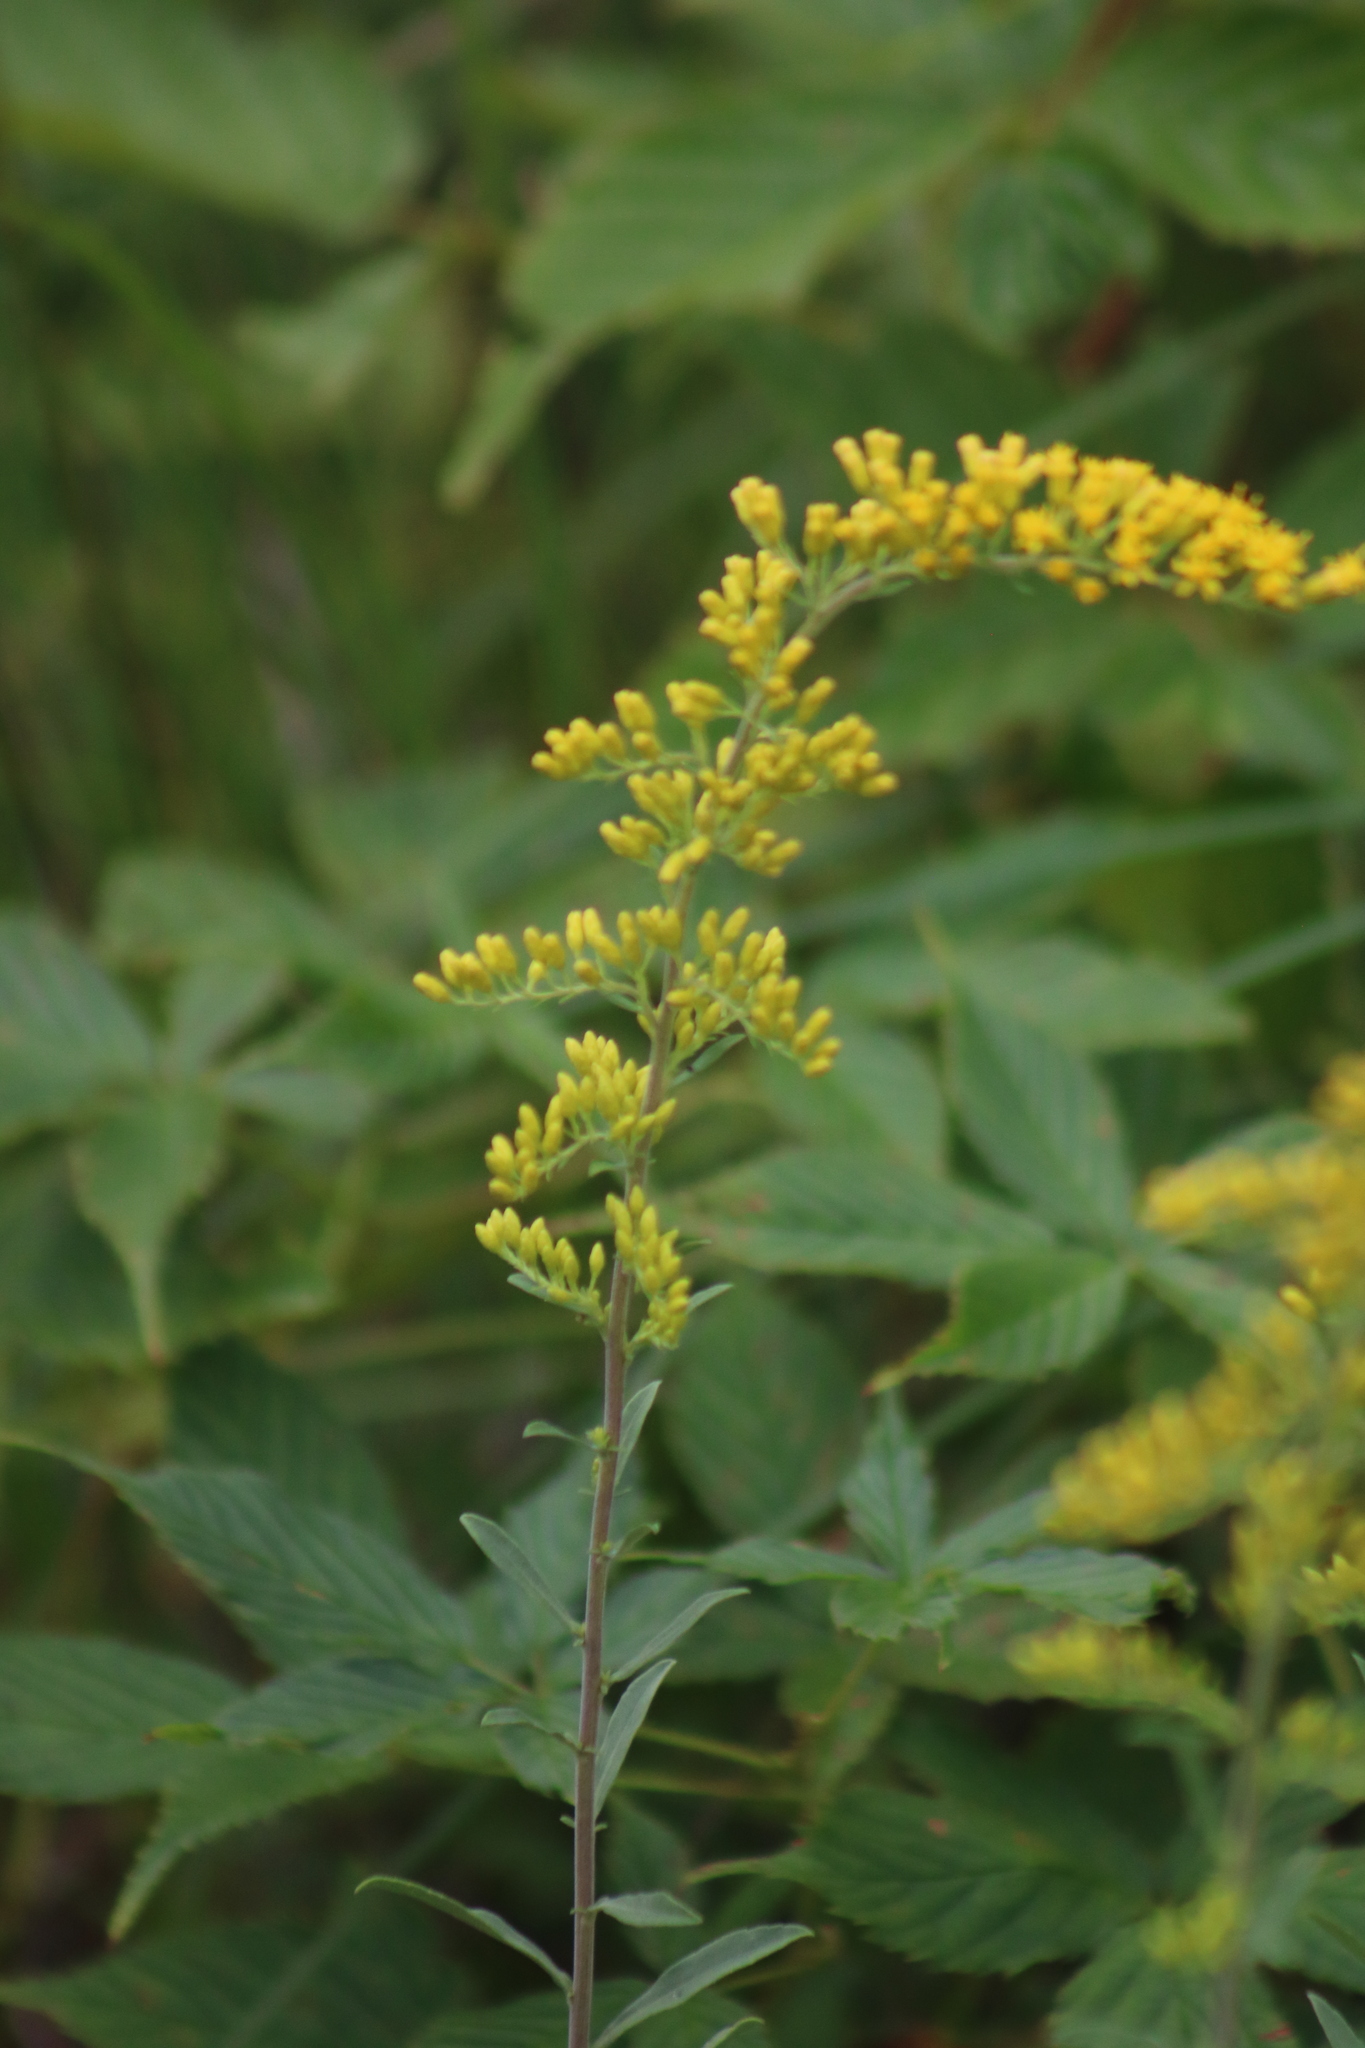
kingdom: Plantae
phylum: Tracheophyta
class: Magnoliopsida
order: Asterales
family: Asteraceae
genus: Solidago
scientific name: Solidago nemoralis
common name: Grey goldenrod
